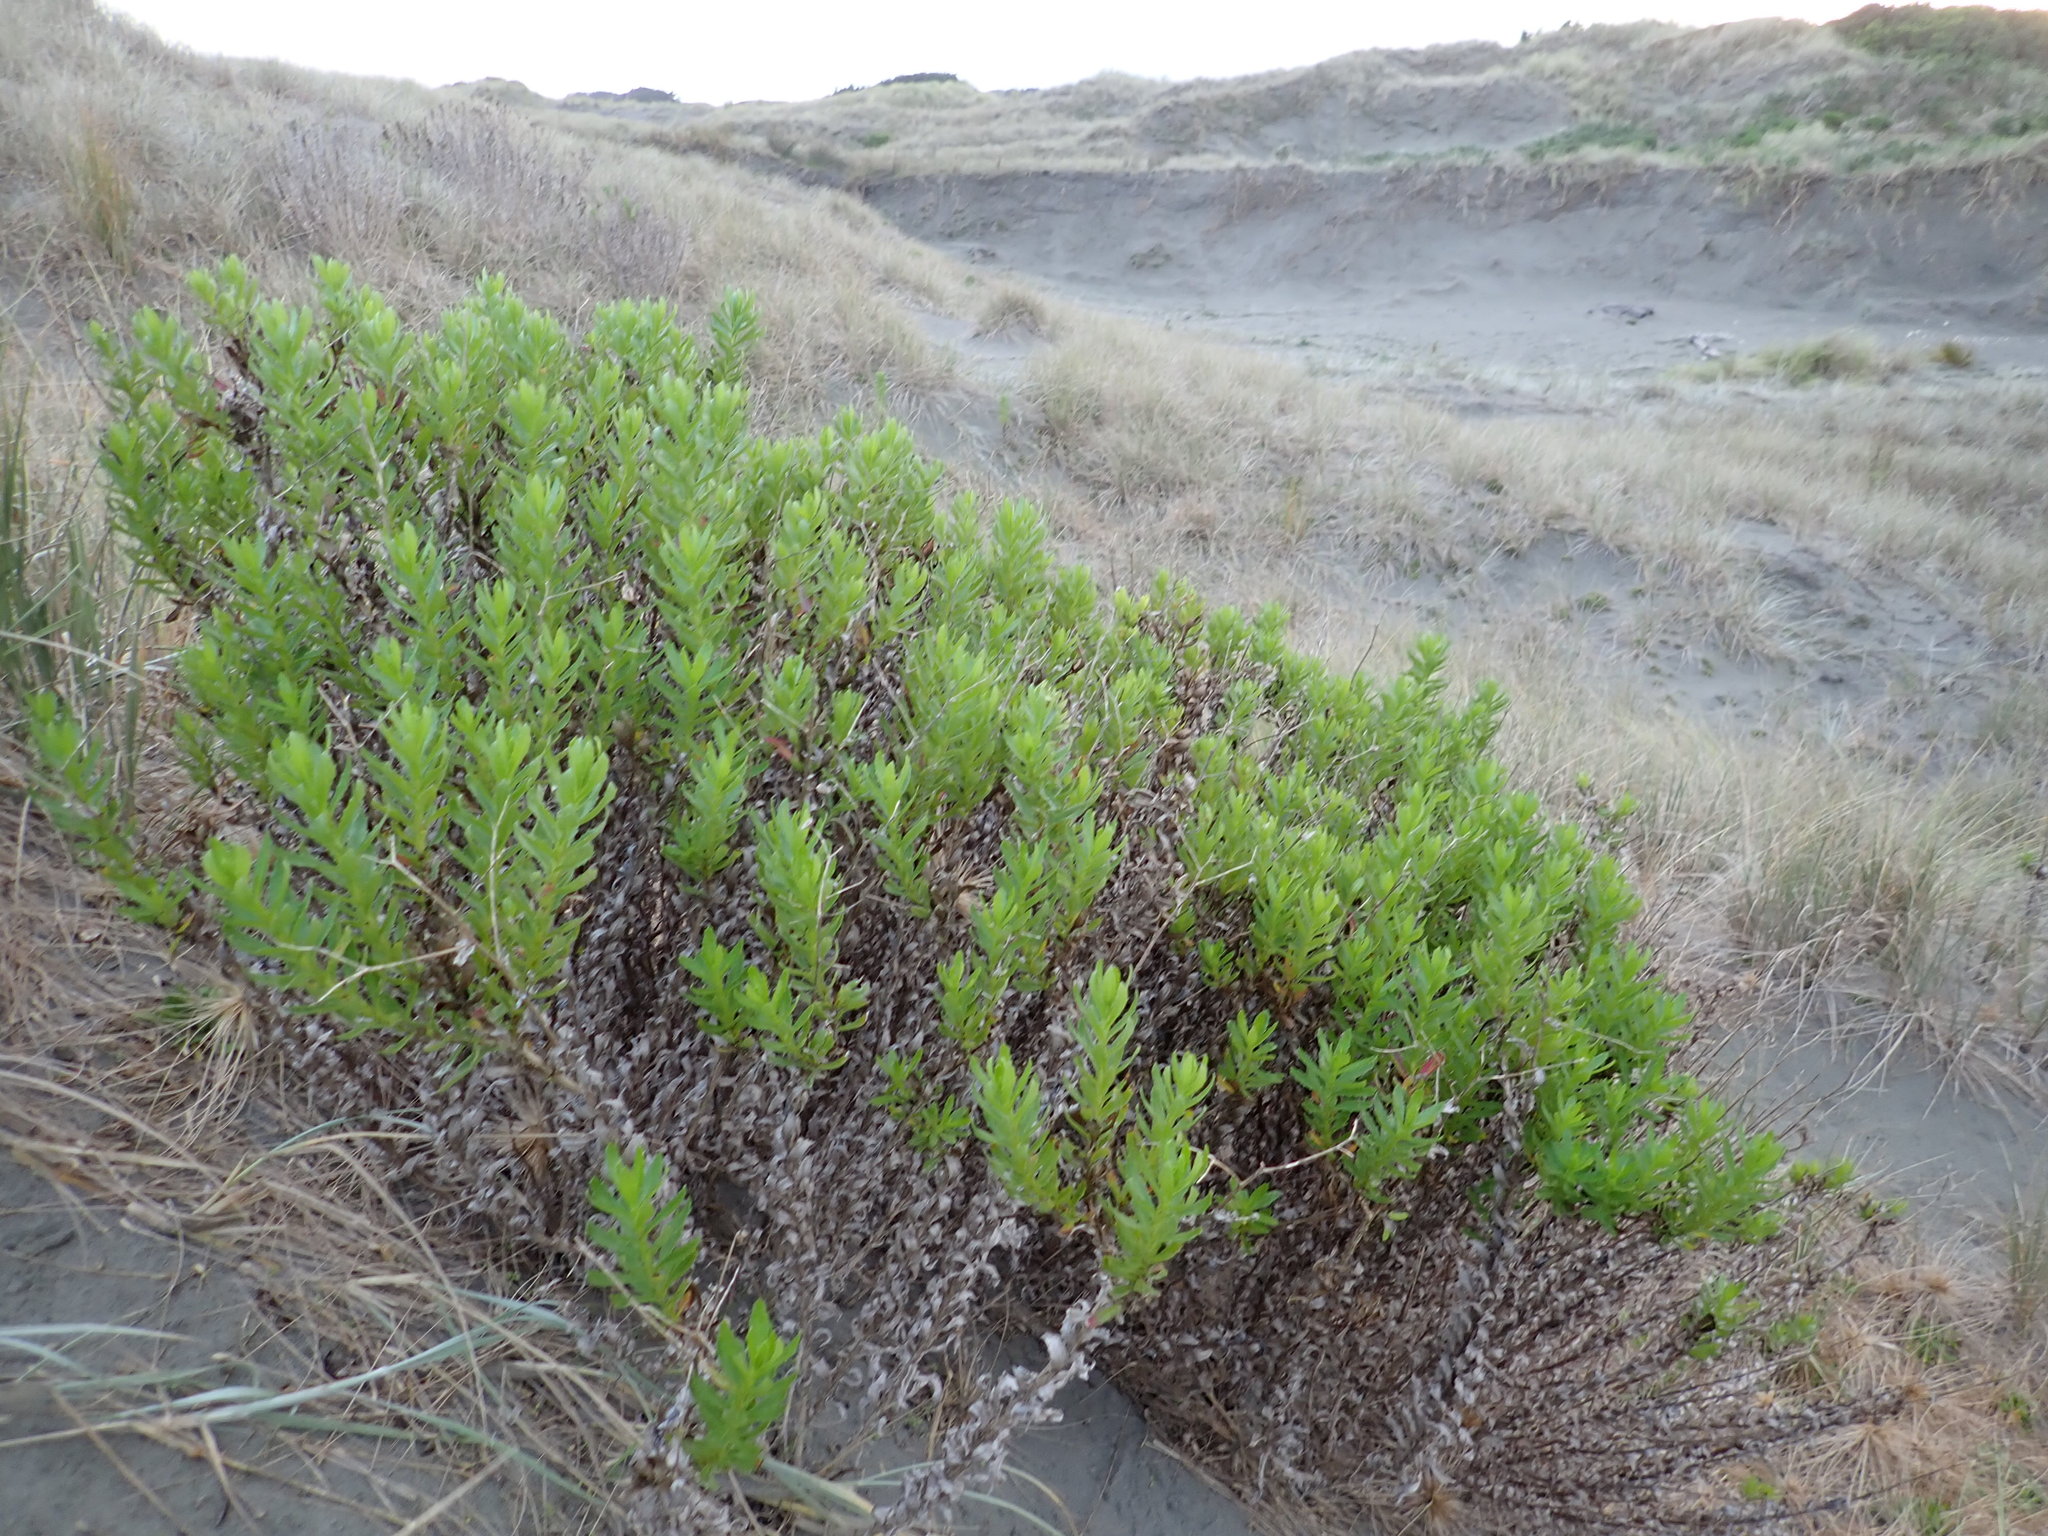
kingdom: Plantae
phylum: Tracheophyta
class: Magnoliopsida
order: Asterales
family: Asteraceae
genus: Senecio
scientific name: Senecio glastifolius
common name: Woad-leaved ragwort
